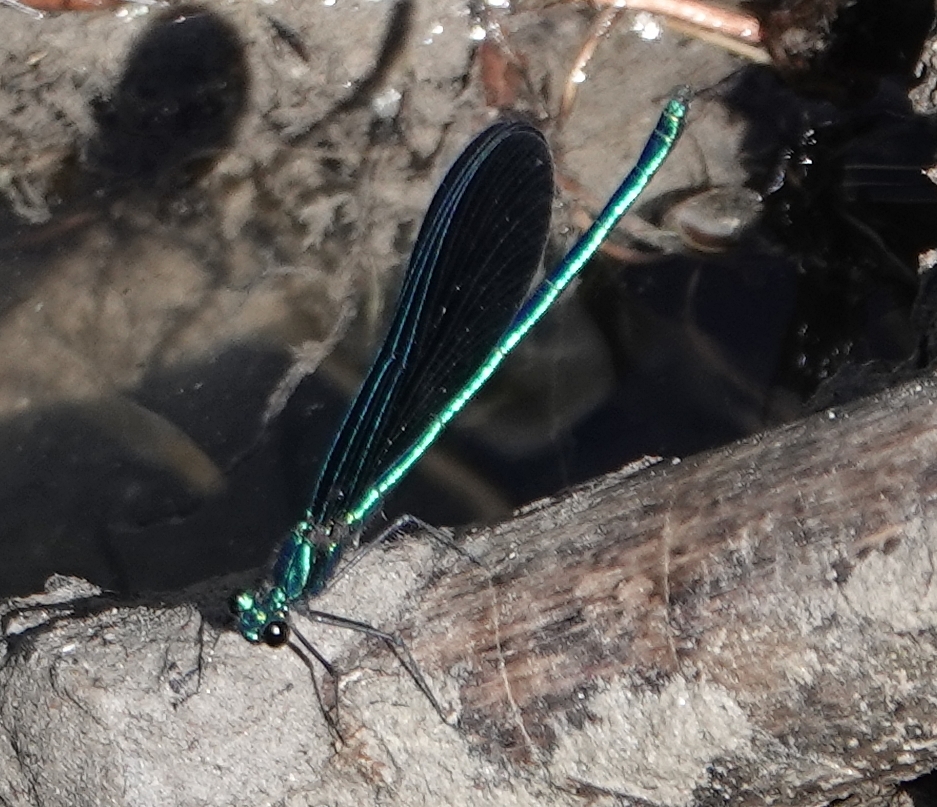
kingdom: Animalia
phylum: Arthropoda
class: Insecta
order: Odonata
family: Calopterygidae
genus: Calopteryx
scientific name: Calopteryx maculata
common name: Ebony jewelwing
